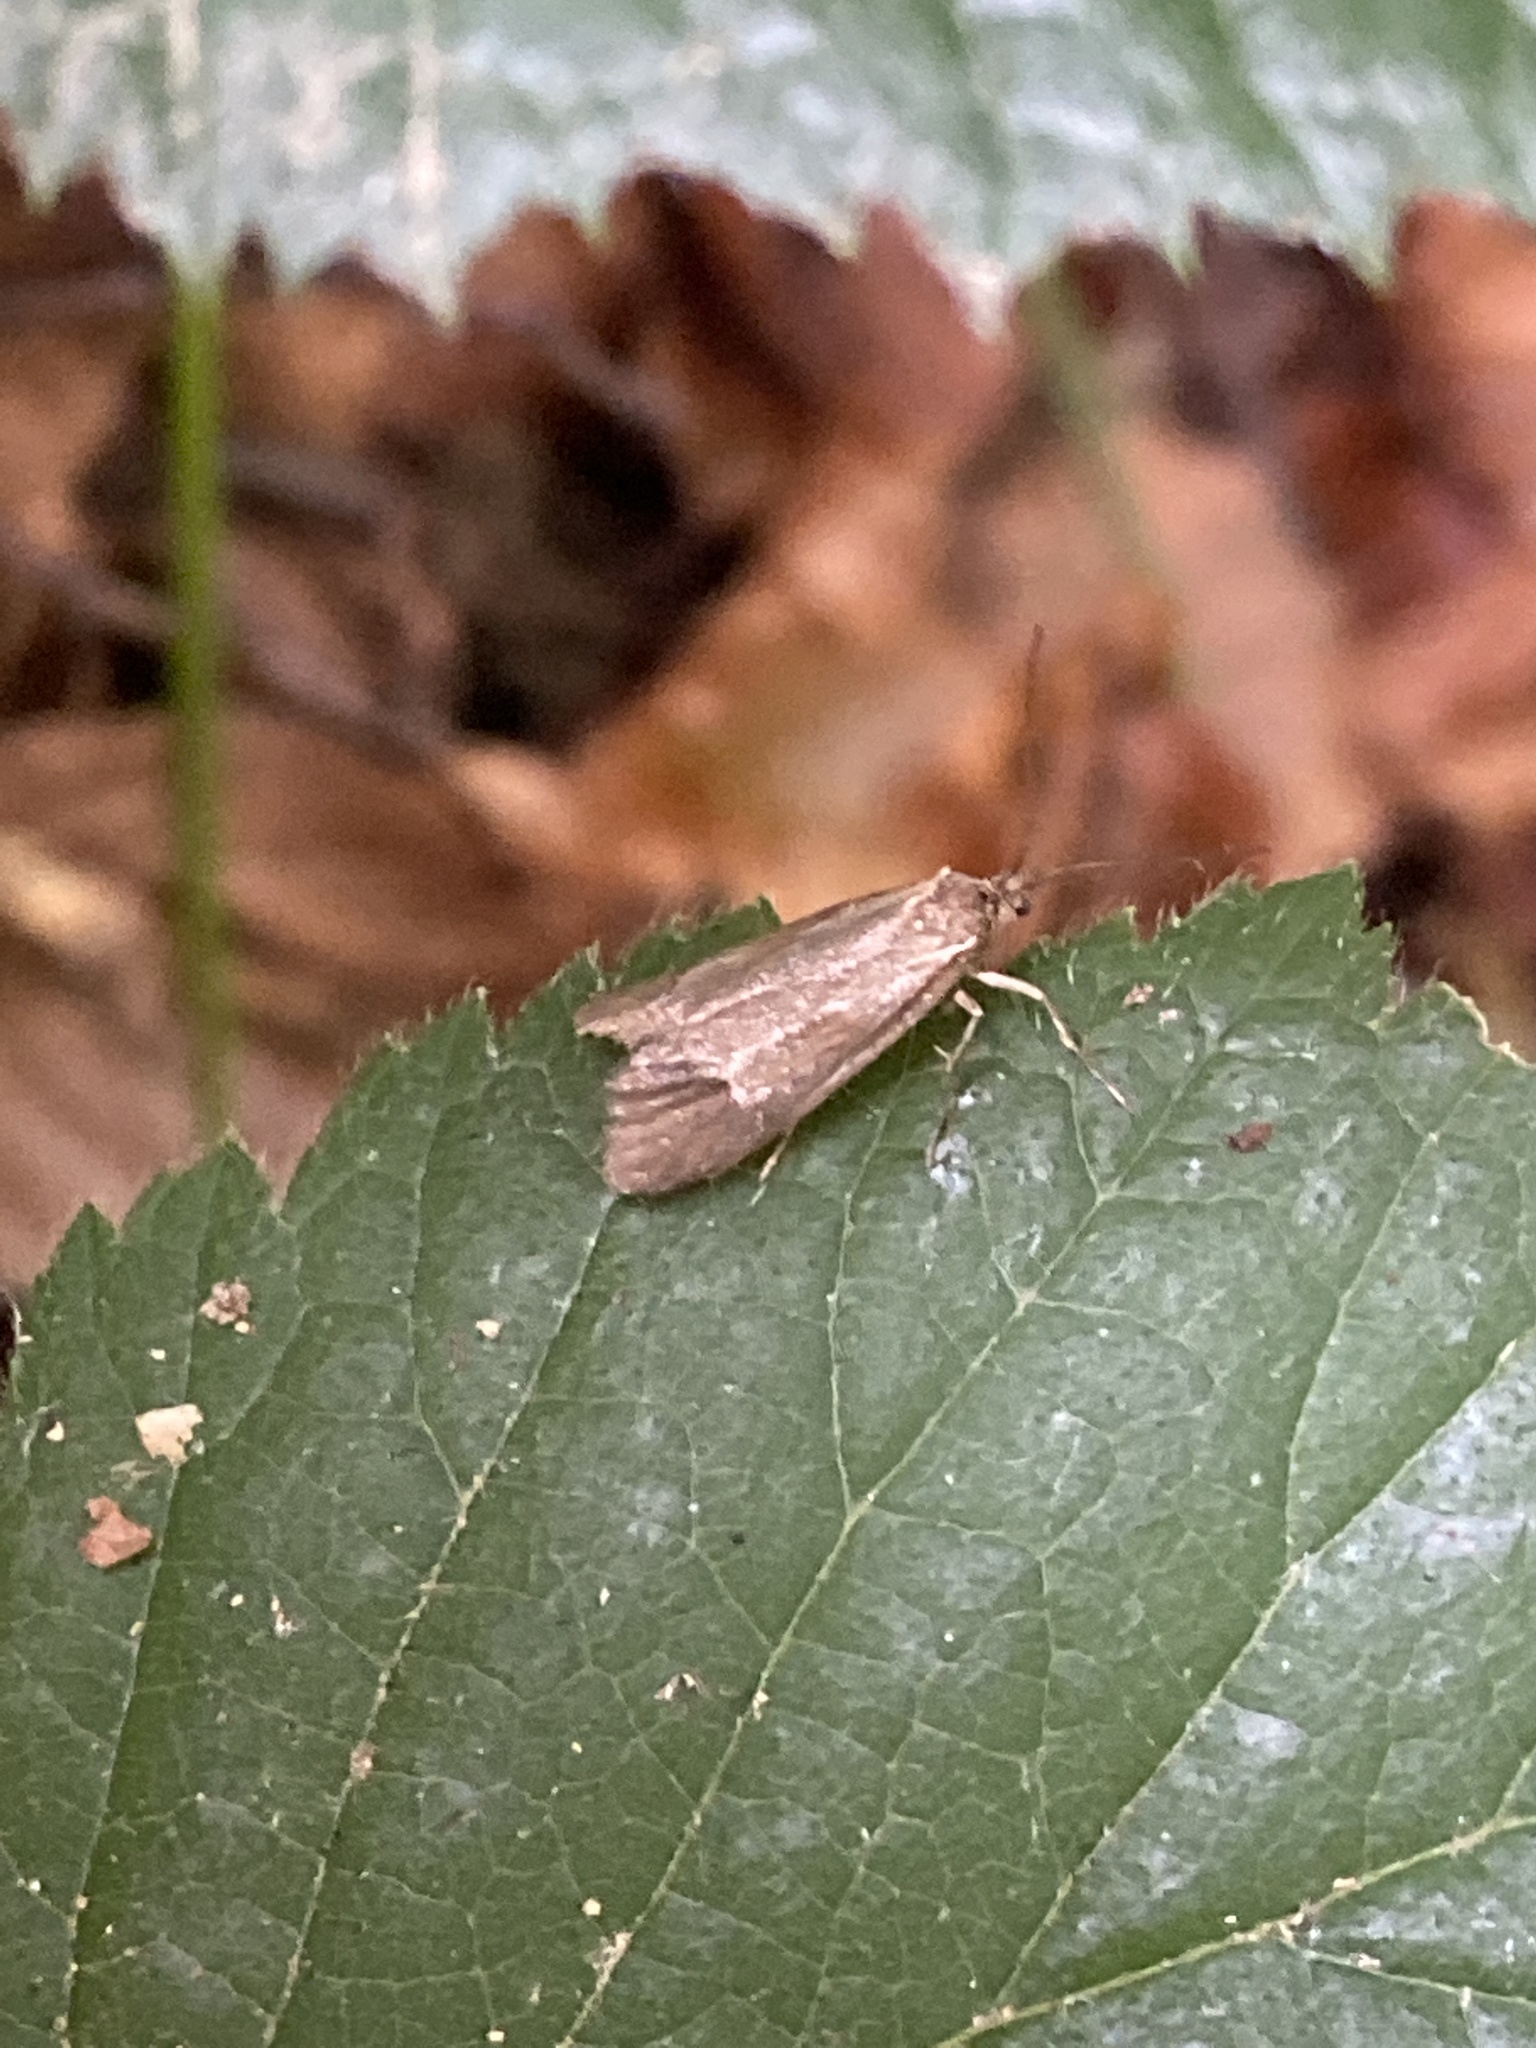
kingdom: Animalia
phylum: Arthropoda
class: Insecta
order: Lepidoptera
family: Lypusidae
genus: Diurnea
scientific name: Diurnea lipsiella
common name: November tubic
